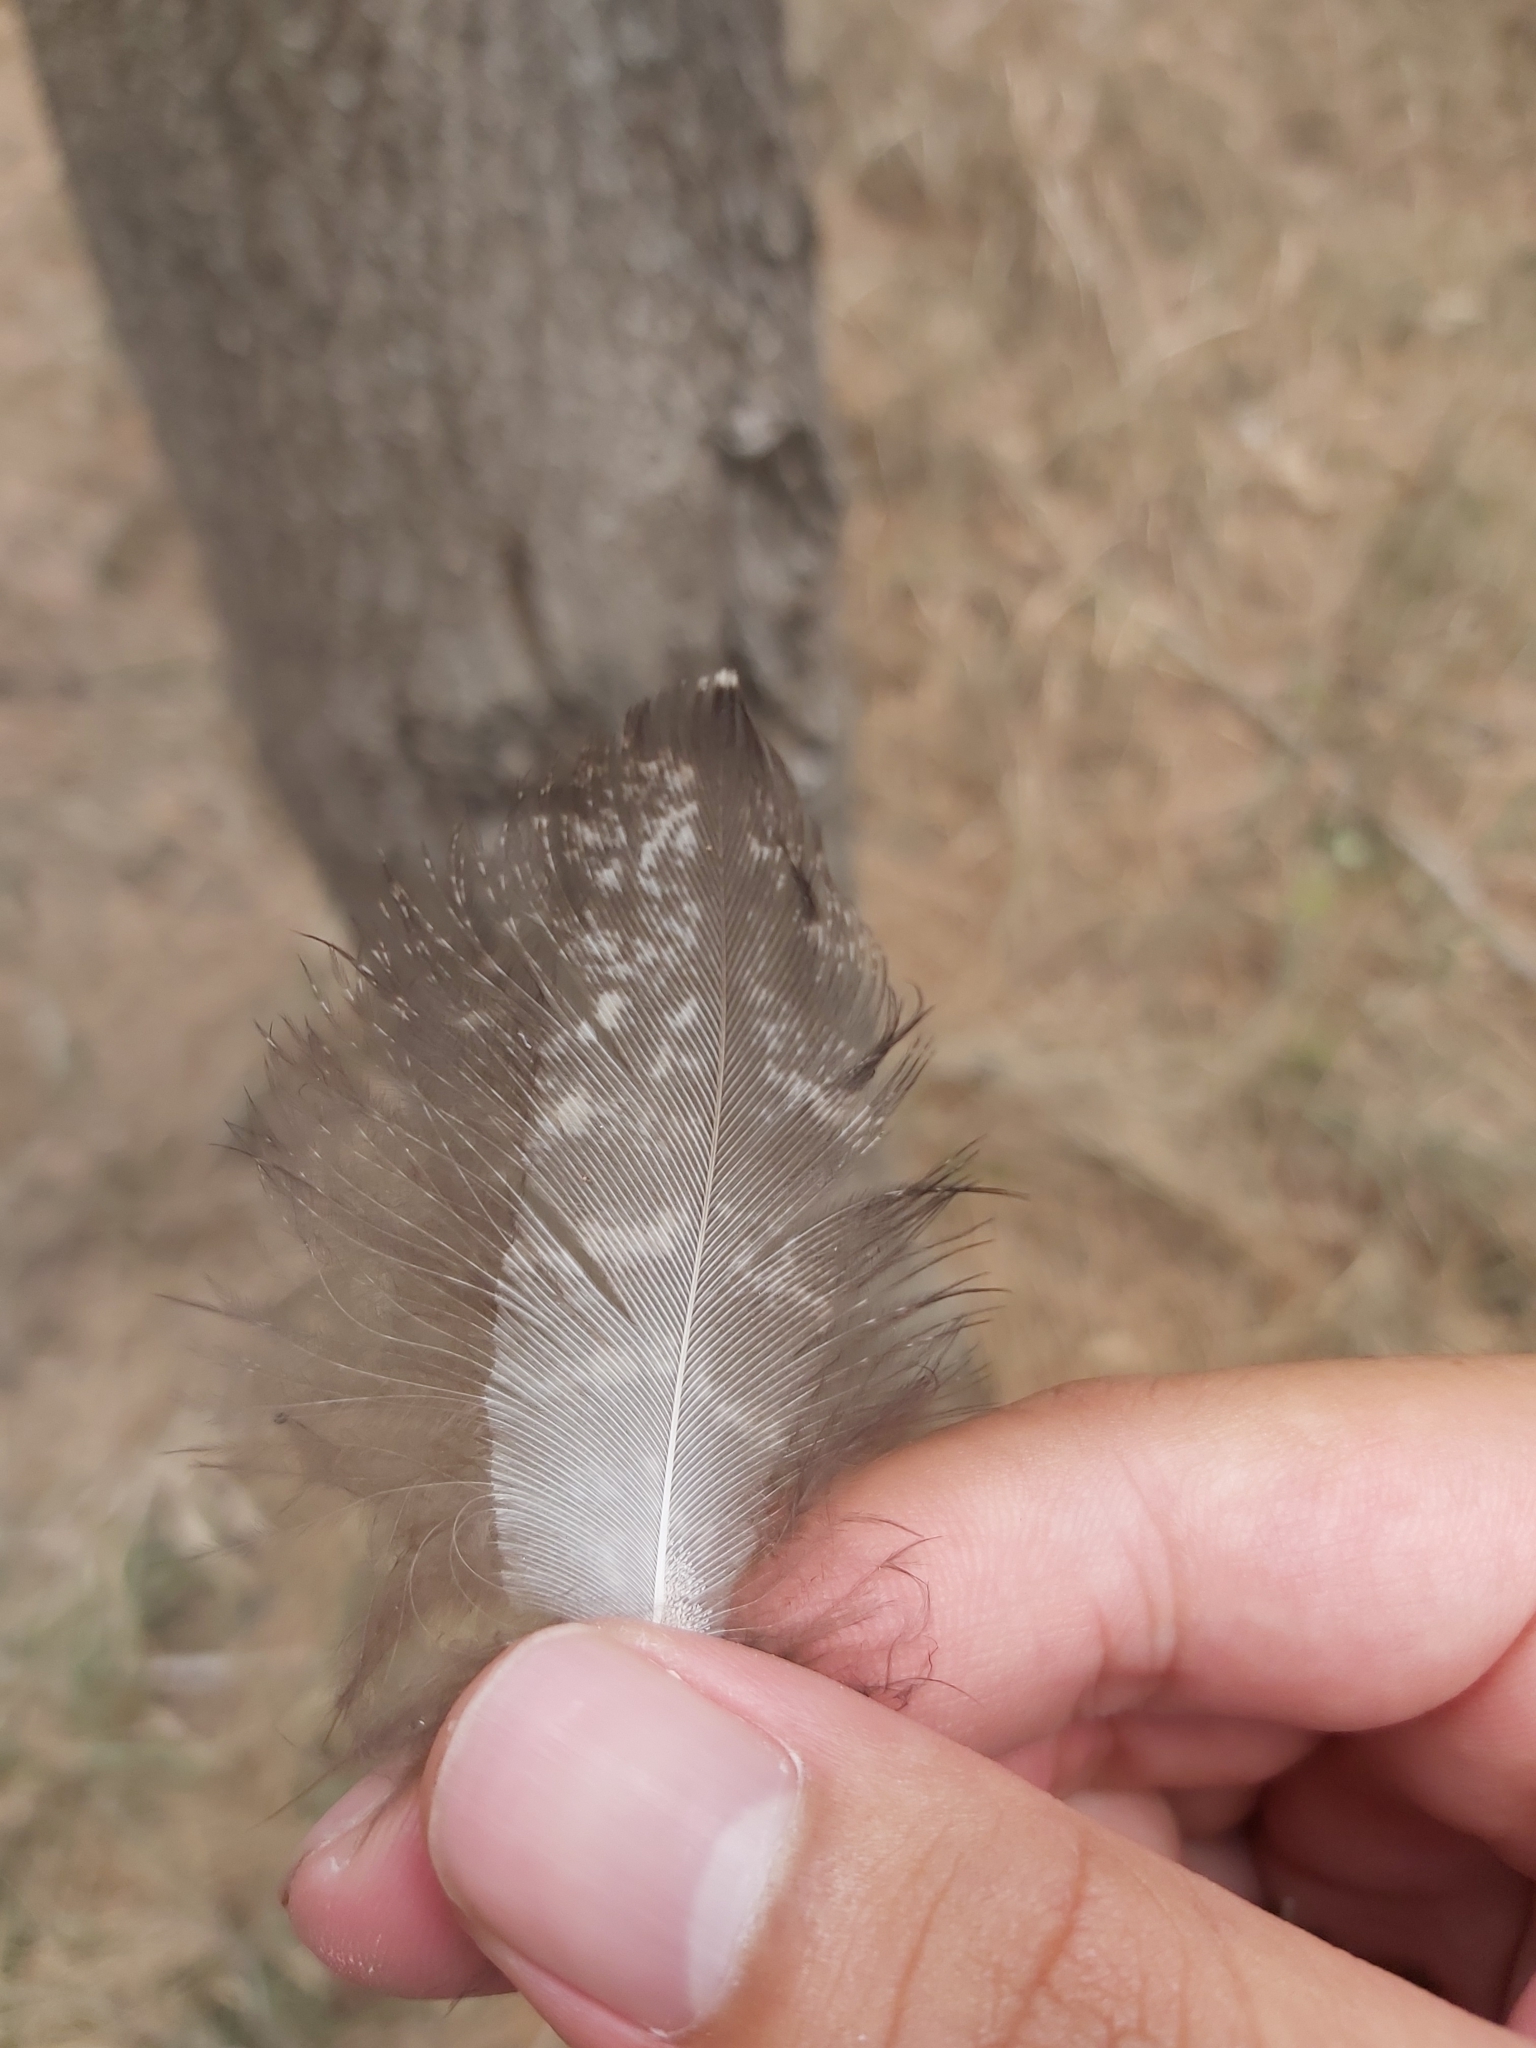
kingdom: Animalia
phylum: Chordata
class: Aves
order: Caprimulgiformes
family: Podargidae
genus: Podargus
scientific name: Podargus strigoides
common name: Tawny frogmouth
